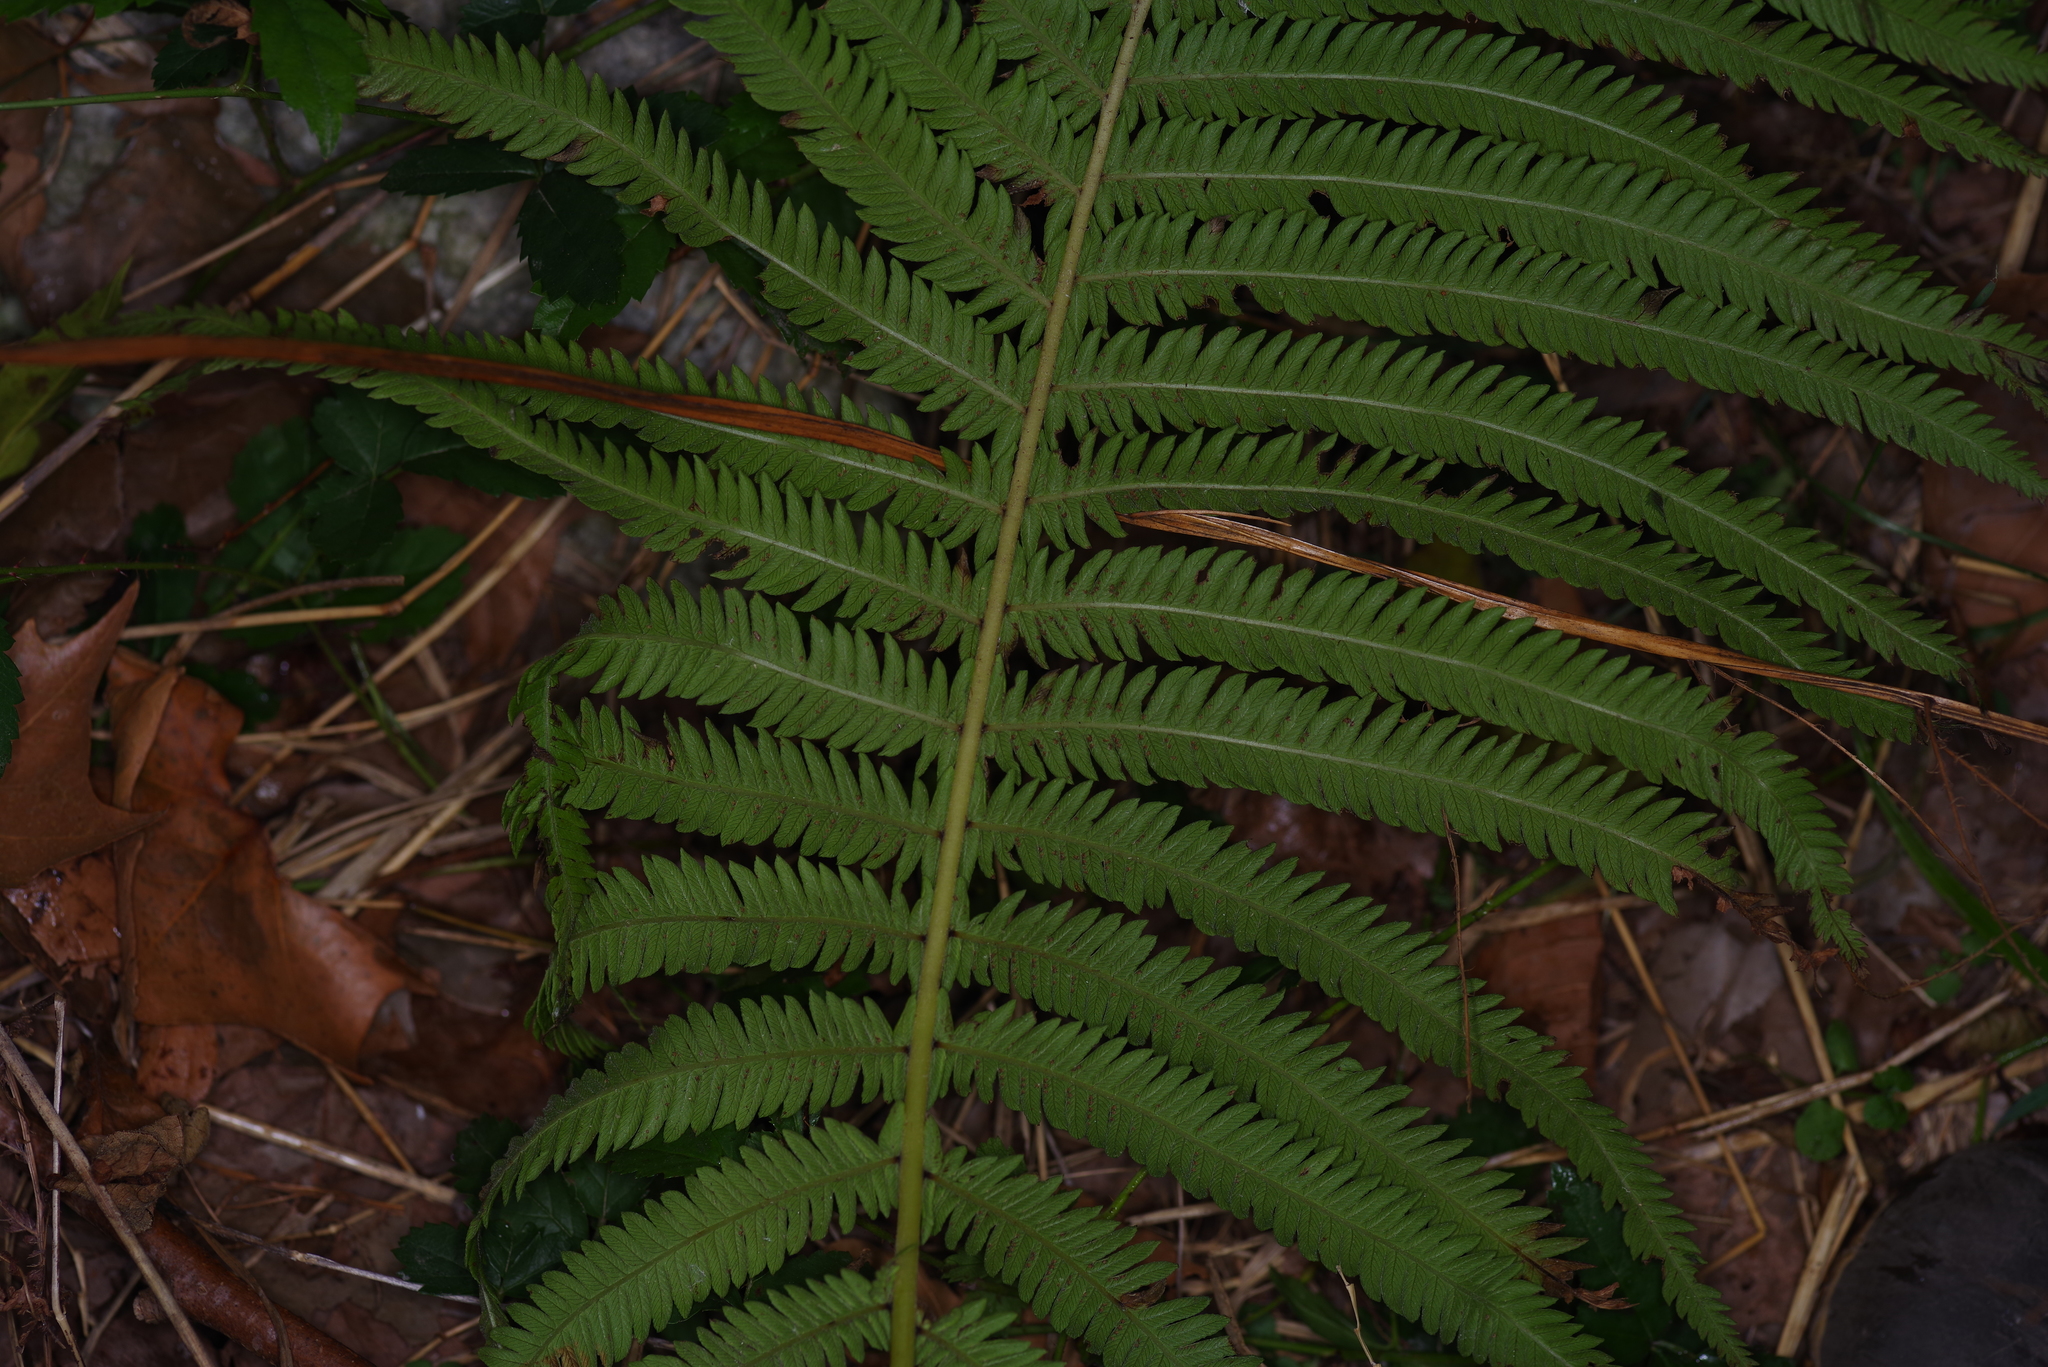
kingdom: Plantae
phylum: Tracheophyta
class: Polypodiopsida
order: Polypodiales
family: Thelypteridaceae
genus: Pelazoneuron
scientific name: Pelazoneuron ovatum
